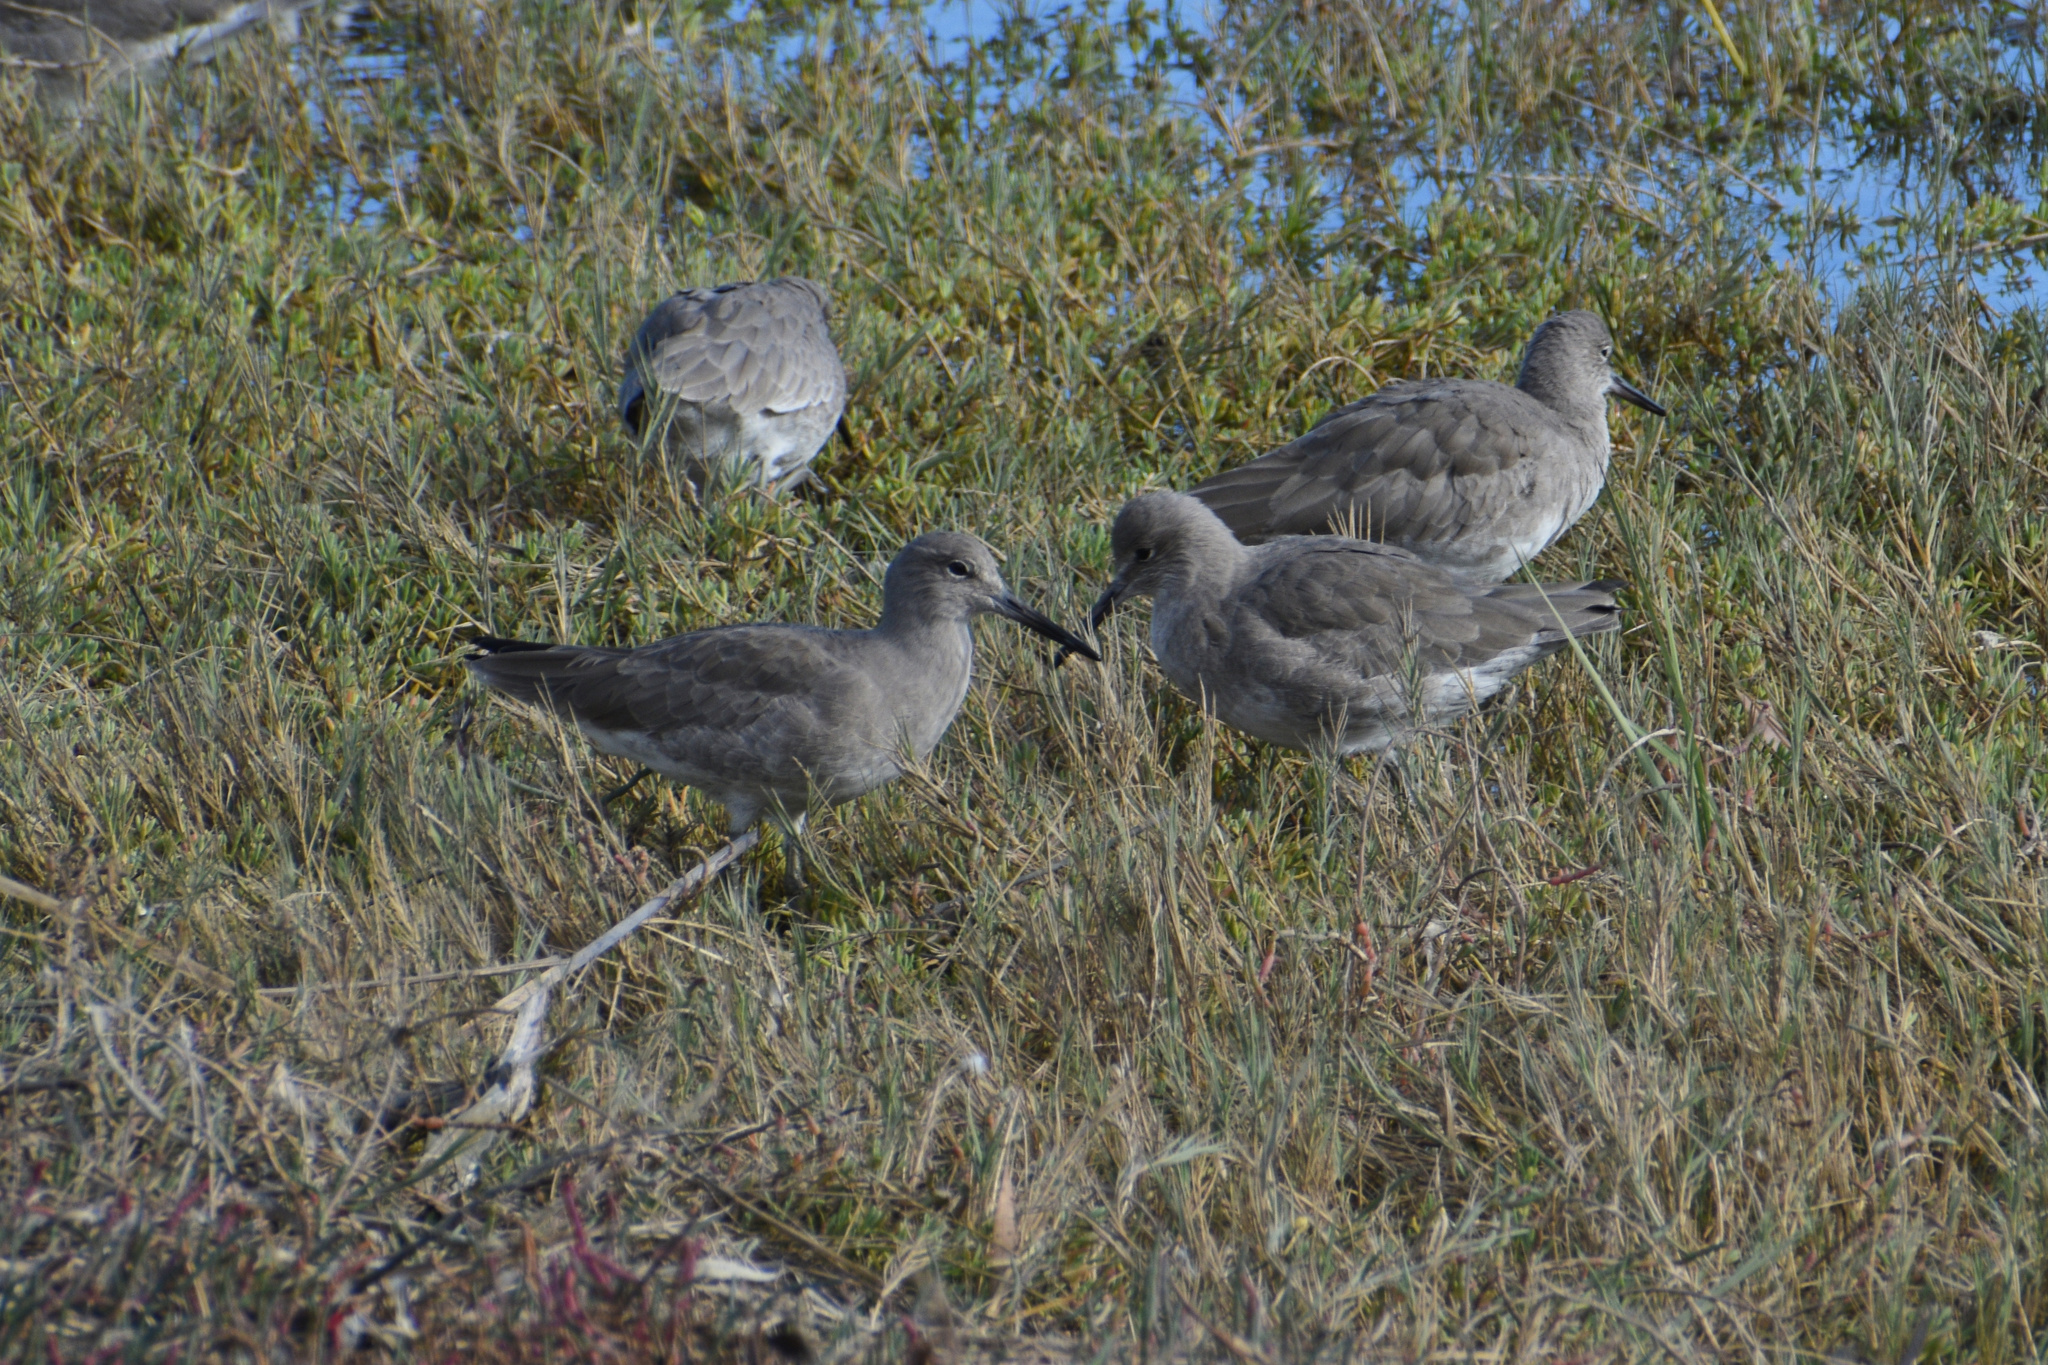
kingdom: Animalia
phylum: Chordata
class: Aves
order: Charadriiformes
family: Scolopacidae
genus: Tringa
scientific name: Tringa semipalmata
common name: Willet
